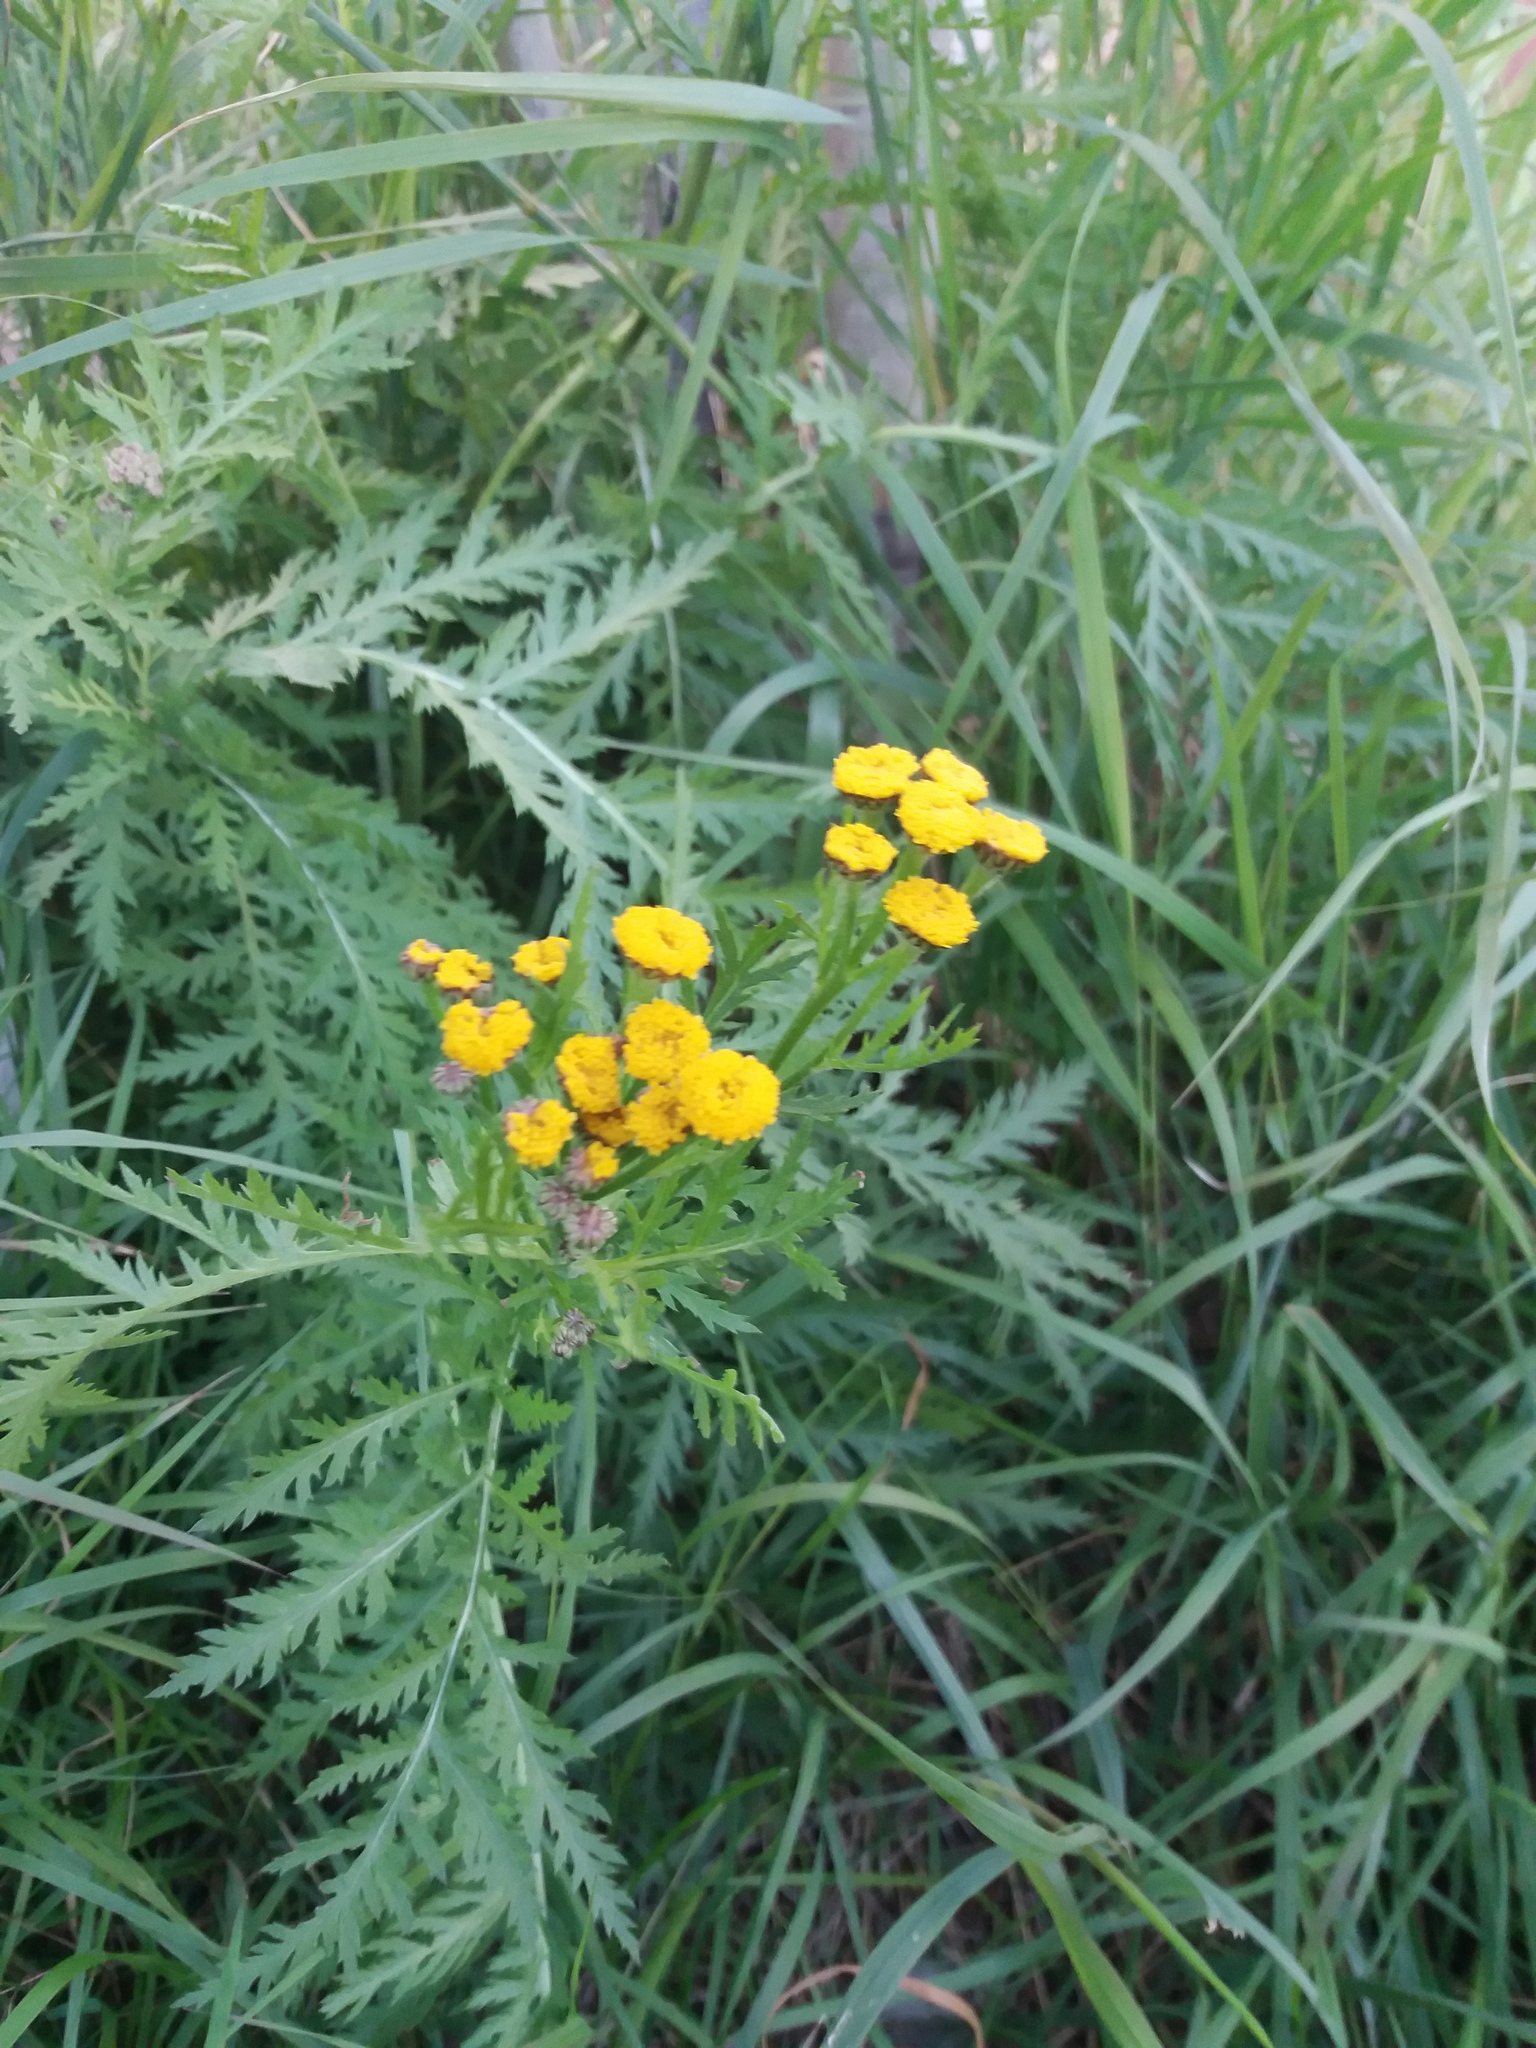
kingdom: Plantae
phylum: Tracheophyta
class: Magnoliopsida
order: Asterales
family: Asteraceae
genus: Tanacetum
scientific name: Tanacetum vulgare
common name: Common tansy
